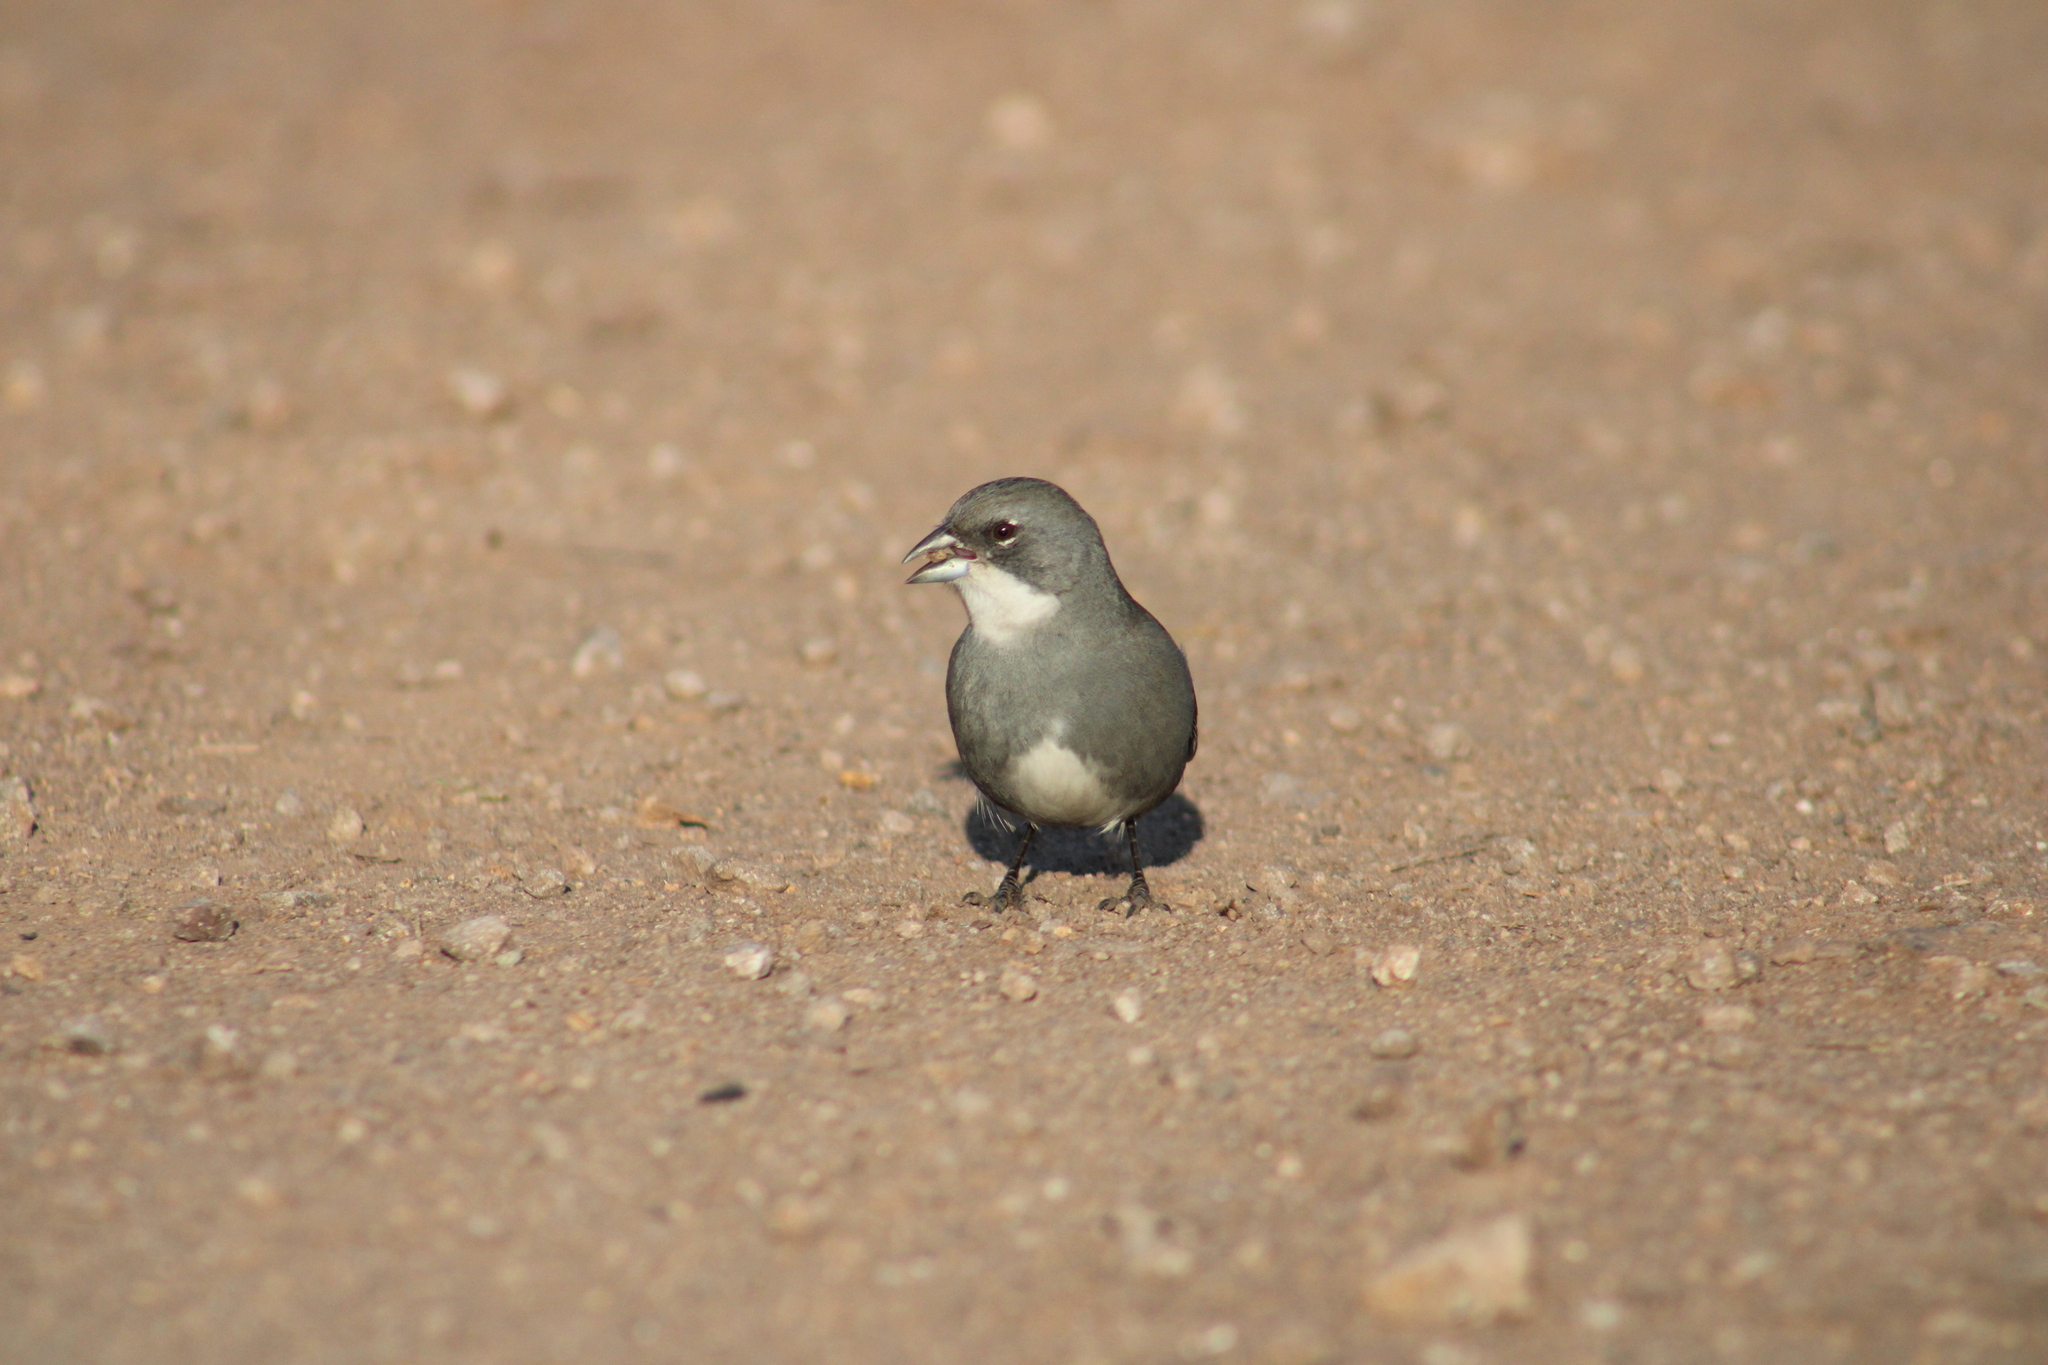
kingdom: Animalia
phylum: Chordata
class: Aves
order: Passeriformes
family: Thraupidae
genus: Diuca
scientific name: Diuca diuca
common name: Common diuca finch
